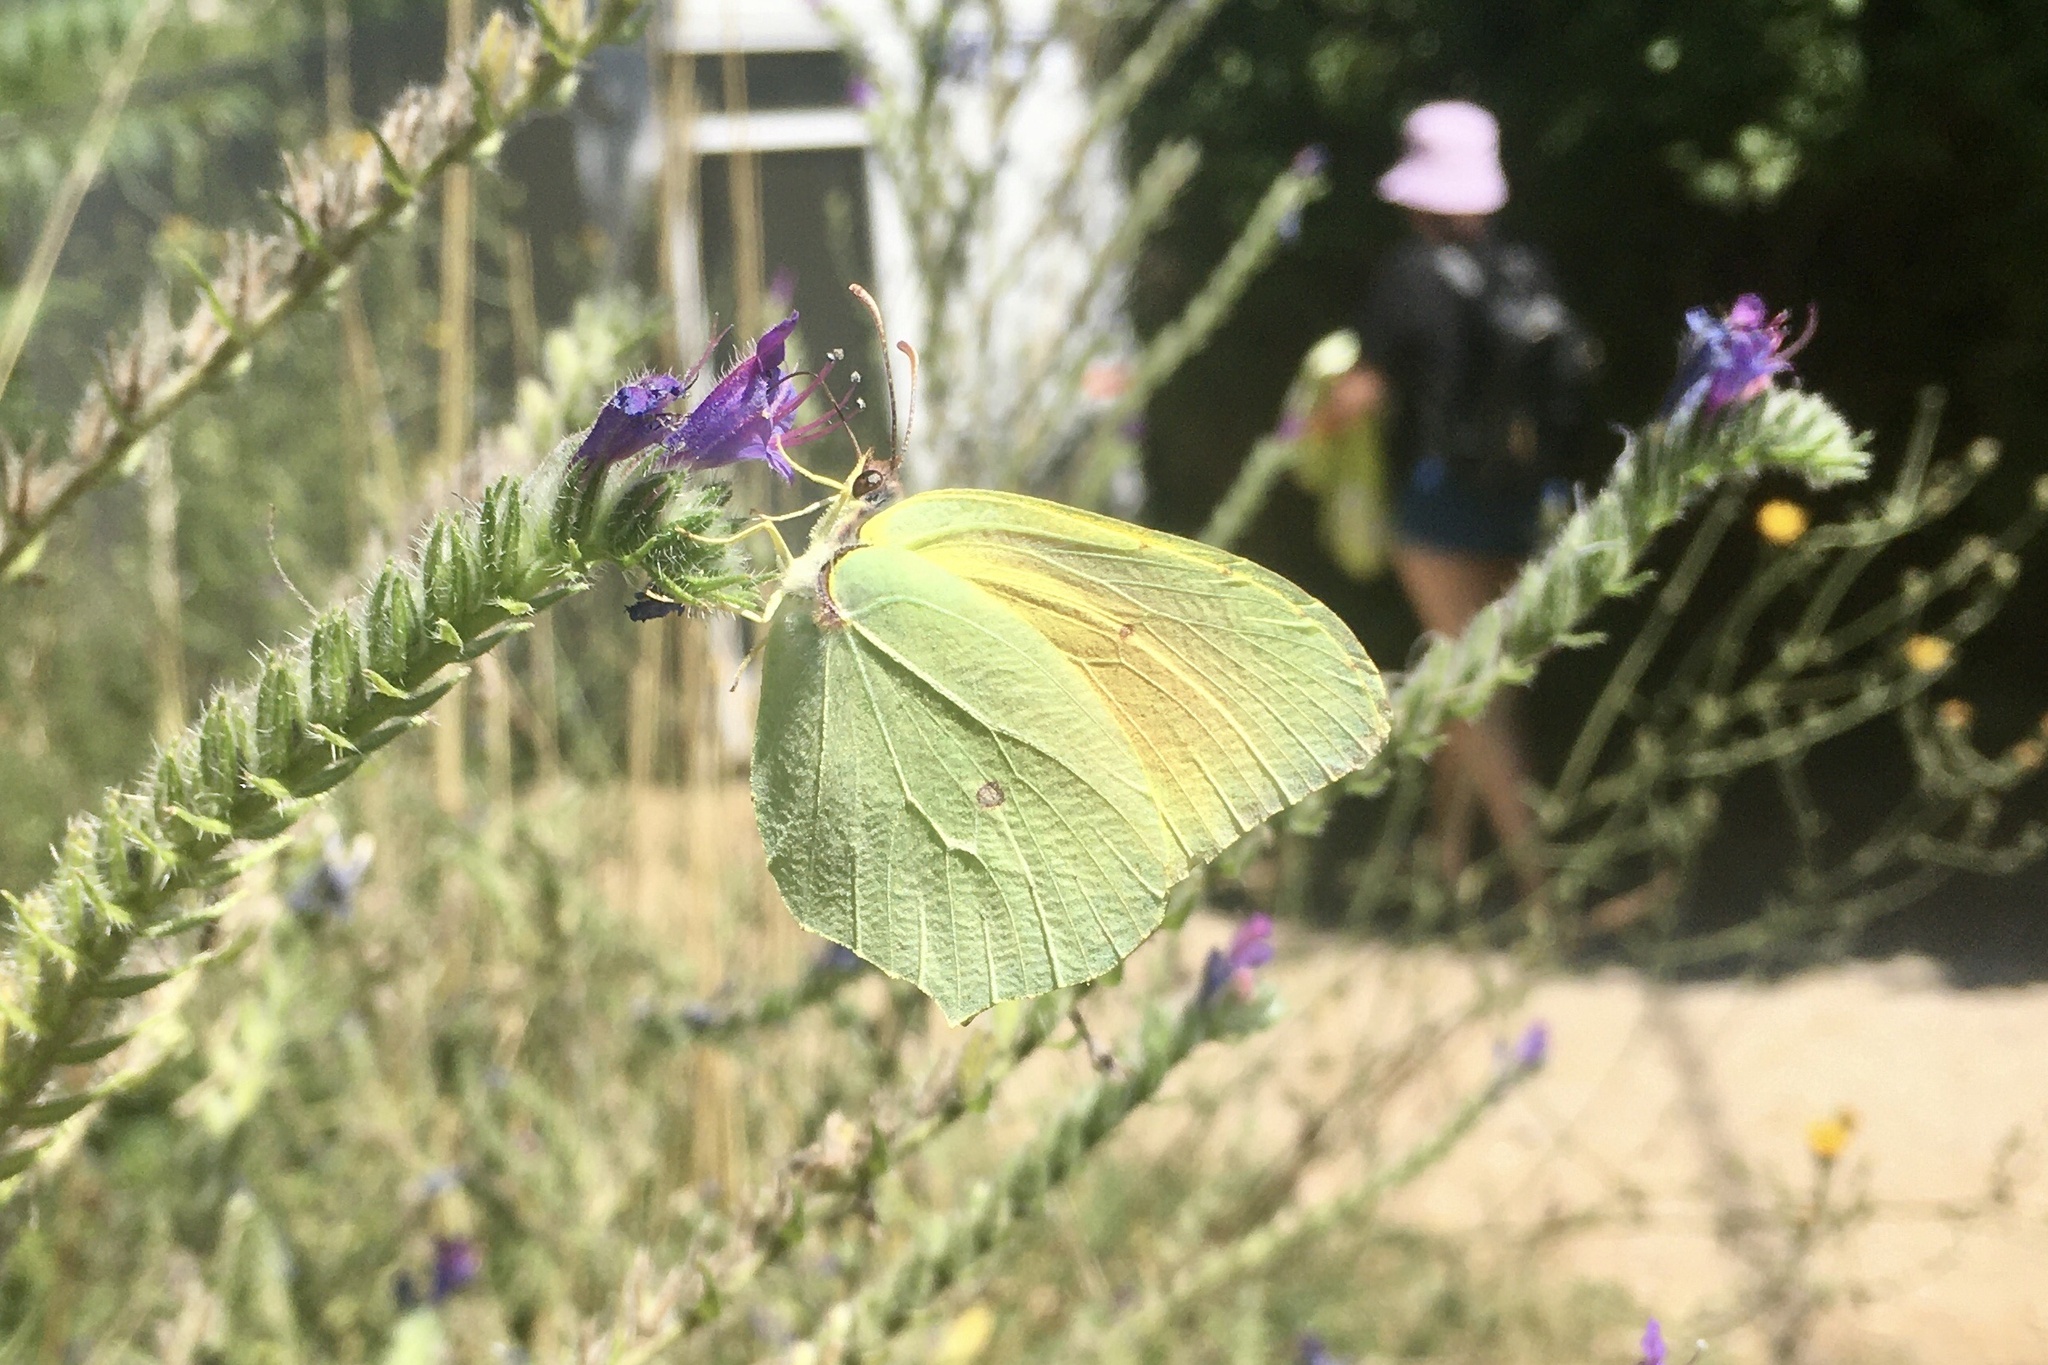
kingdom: Animalia
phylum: Arthropoda
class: Insecta
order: Lepidoptera
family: Pieridae
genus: Gonepteryx
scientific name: Gonepteryx cleopatra
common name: Cleopatra
